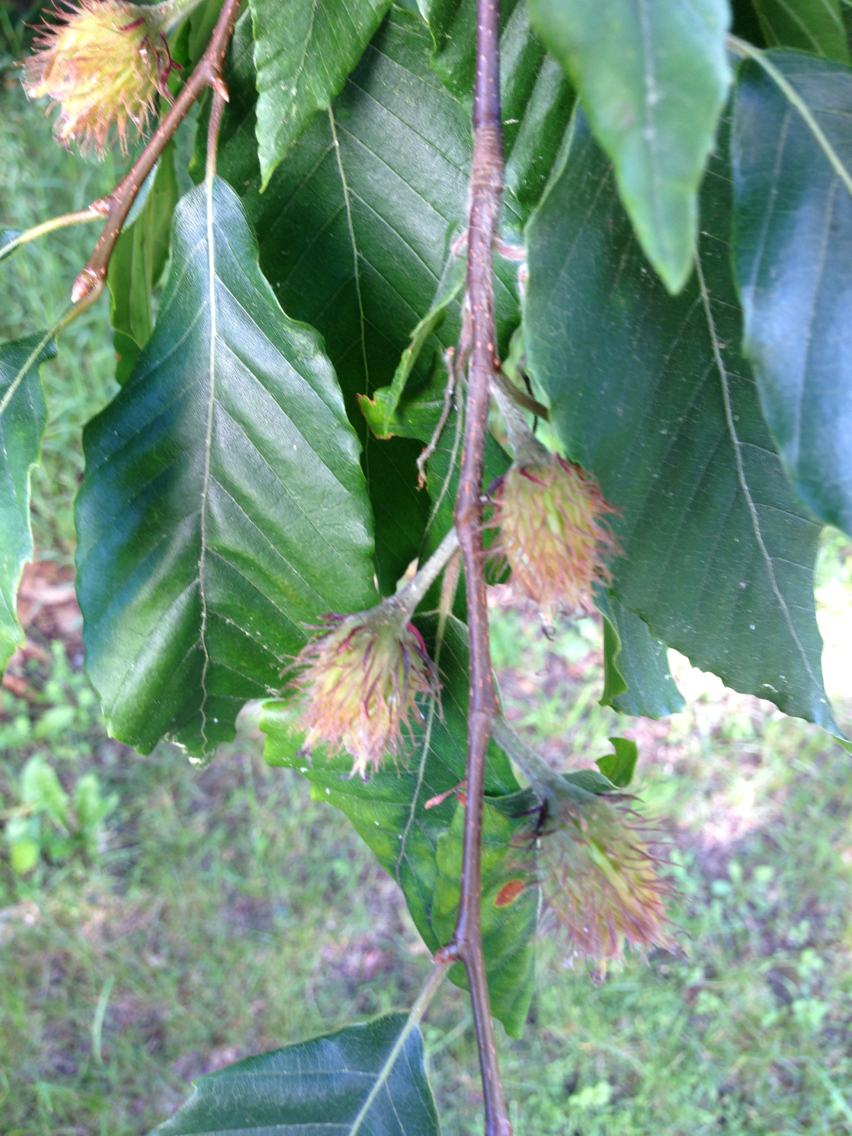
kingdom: Plantae
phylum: Tracheophyta
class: Magnoliopsida
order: Fagales
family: Fagaceae
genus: Fagus
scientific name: Fagus grandifolia
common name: American beech
